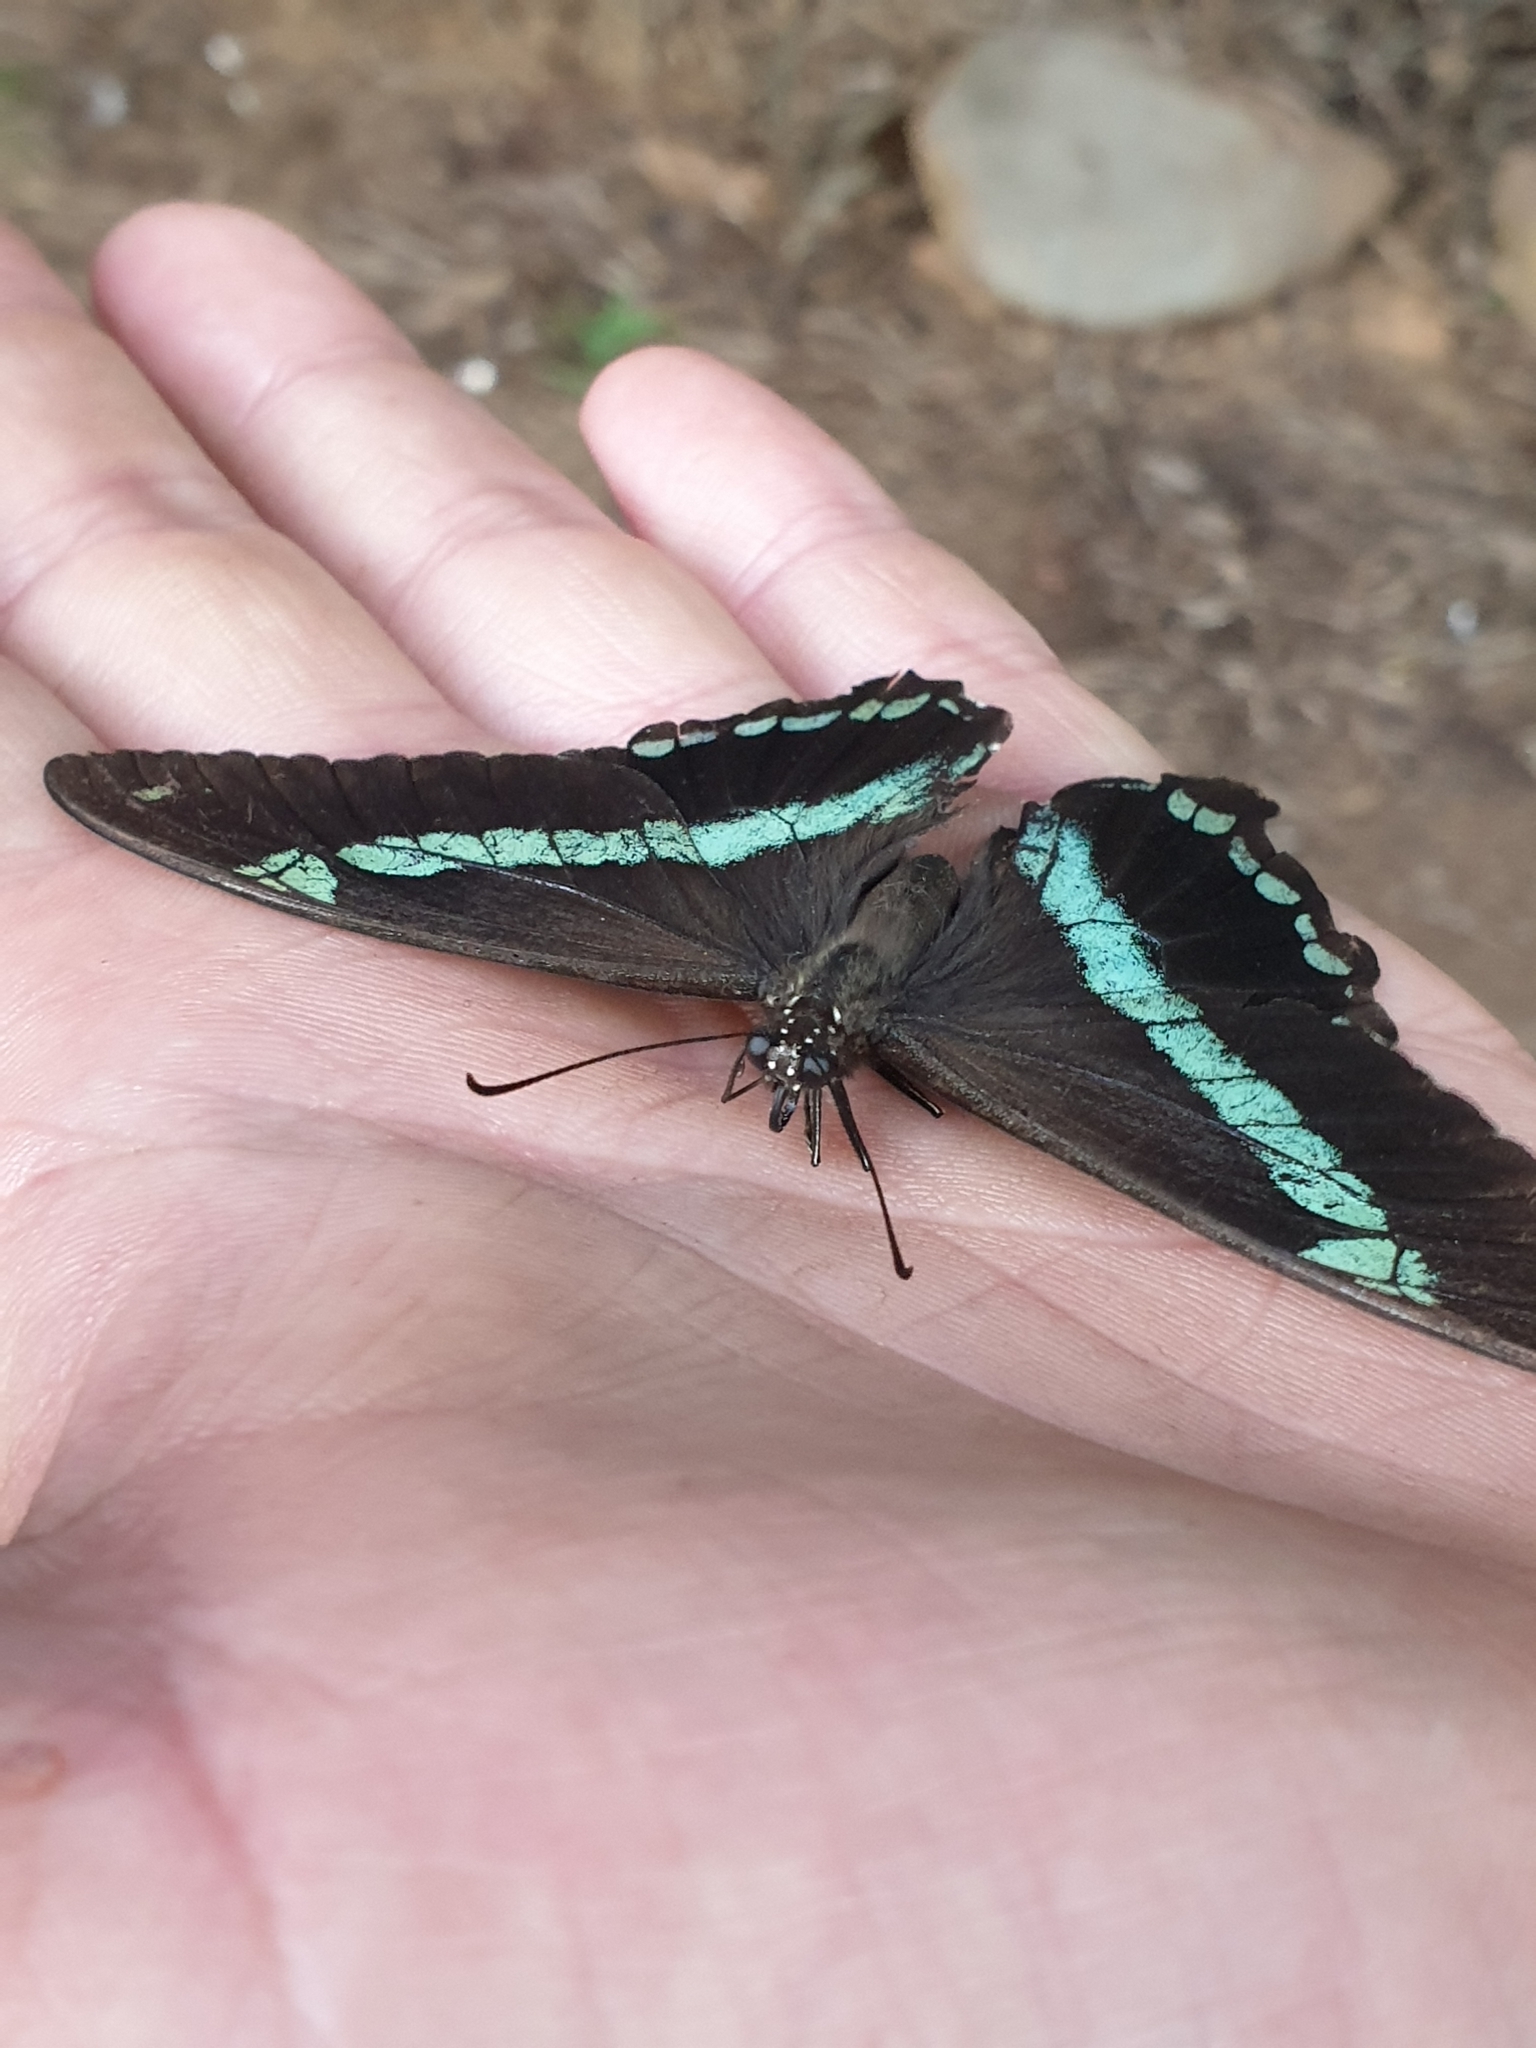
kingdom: Animalia
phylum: Arthropoda
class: Insecta
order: Lepidoptera
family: Papilionidae
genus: Papilio
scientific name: Papilio nireus
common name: Greenbanded swallowtail
